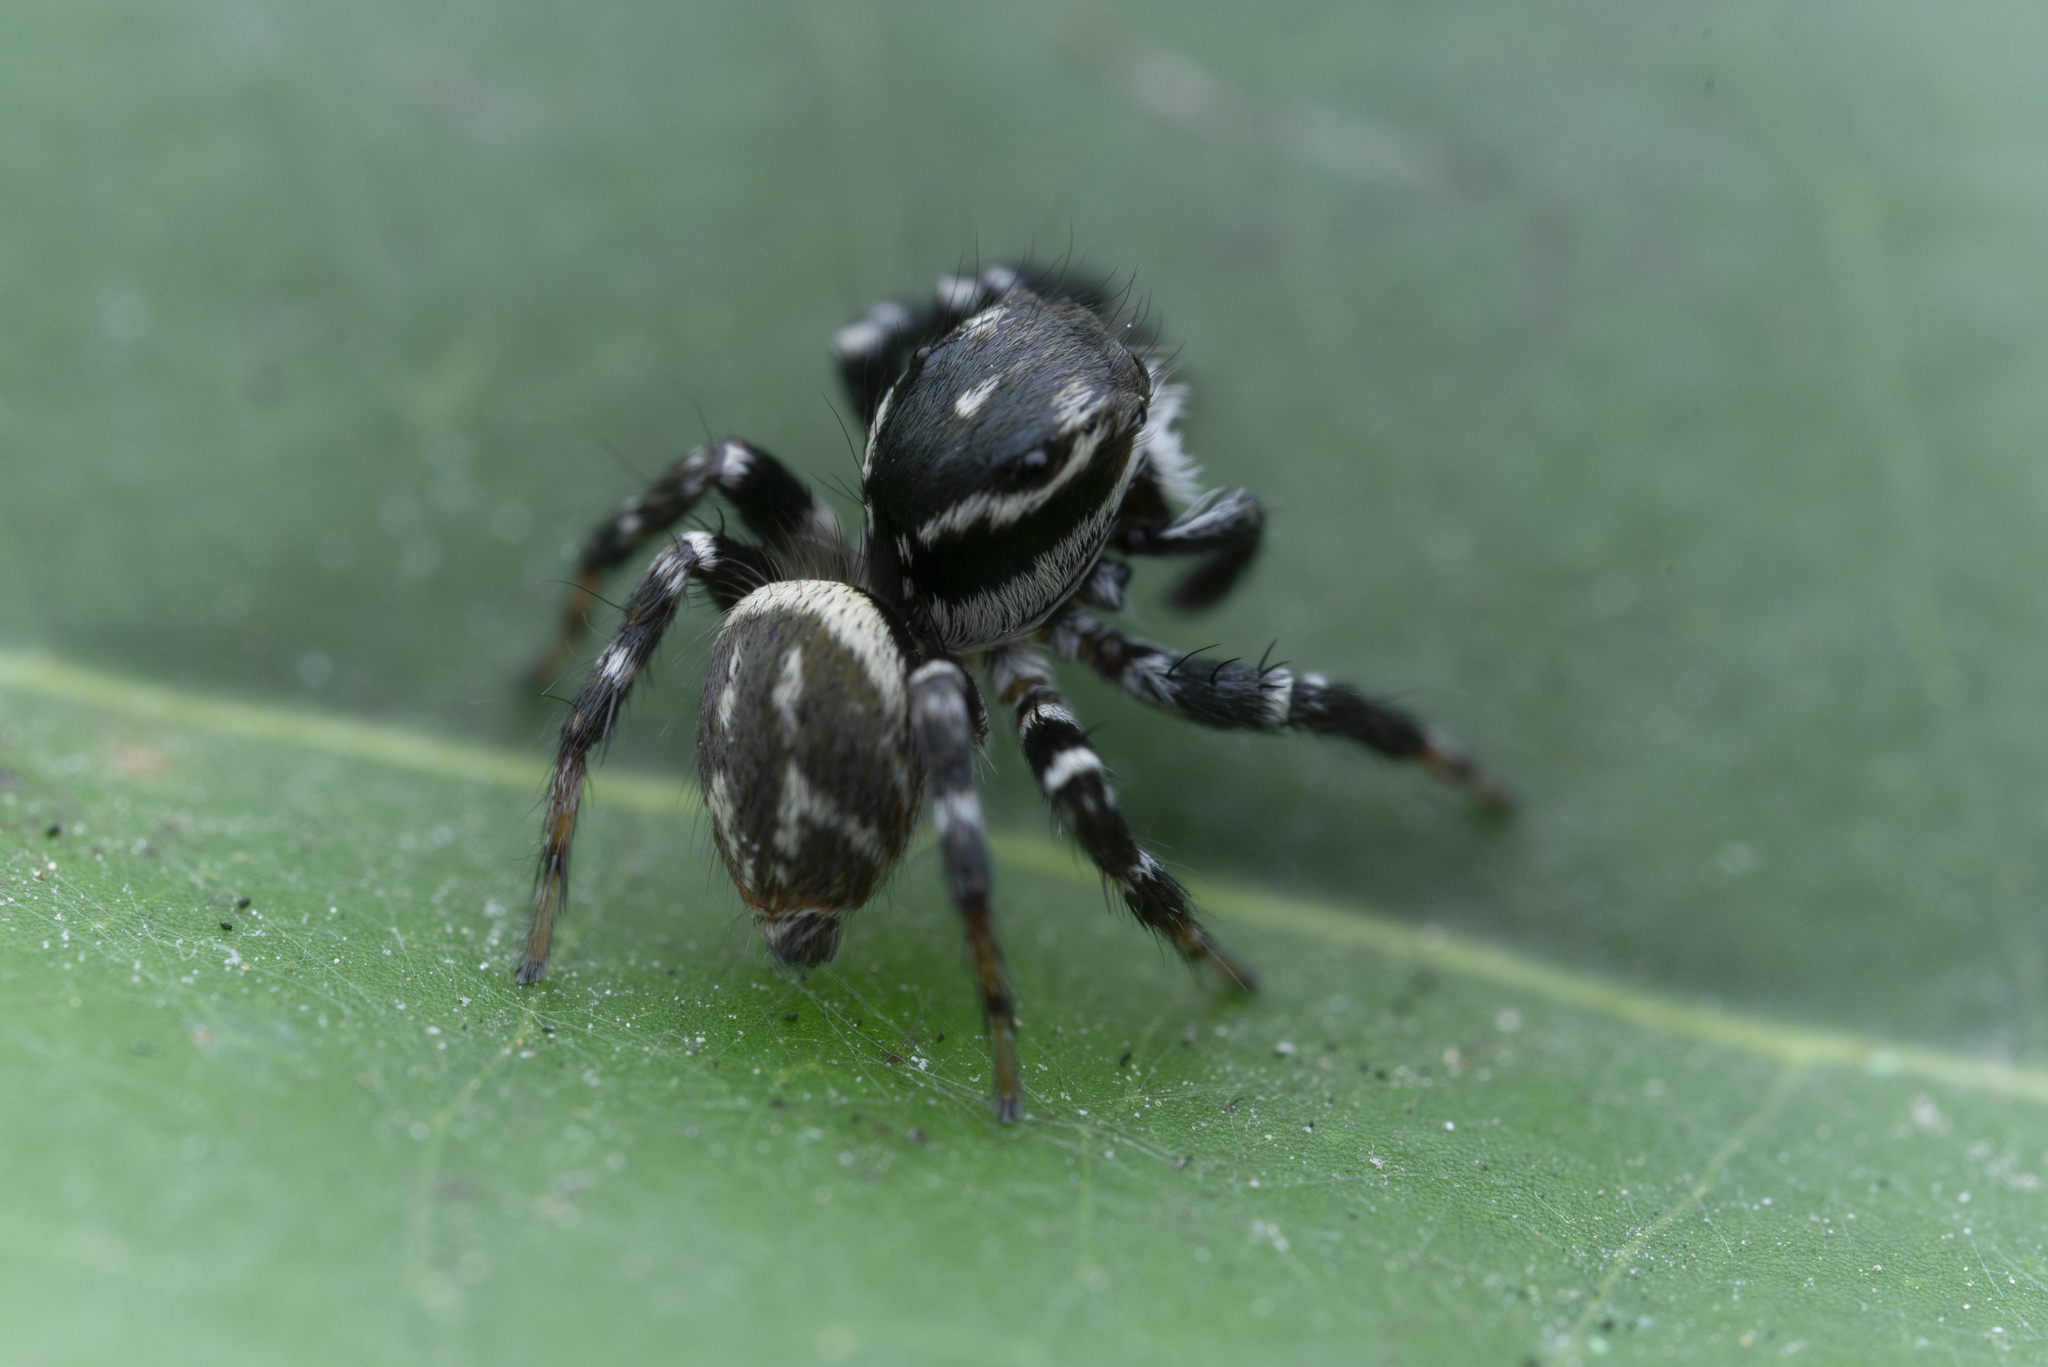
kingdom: Animalia
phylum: Arthropoda
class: Arachnida
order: Araneae
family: Salticidae
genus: Carrhotus
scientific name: Carrhotus sannio
